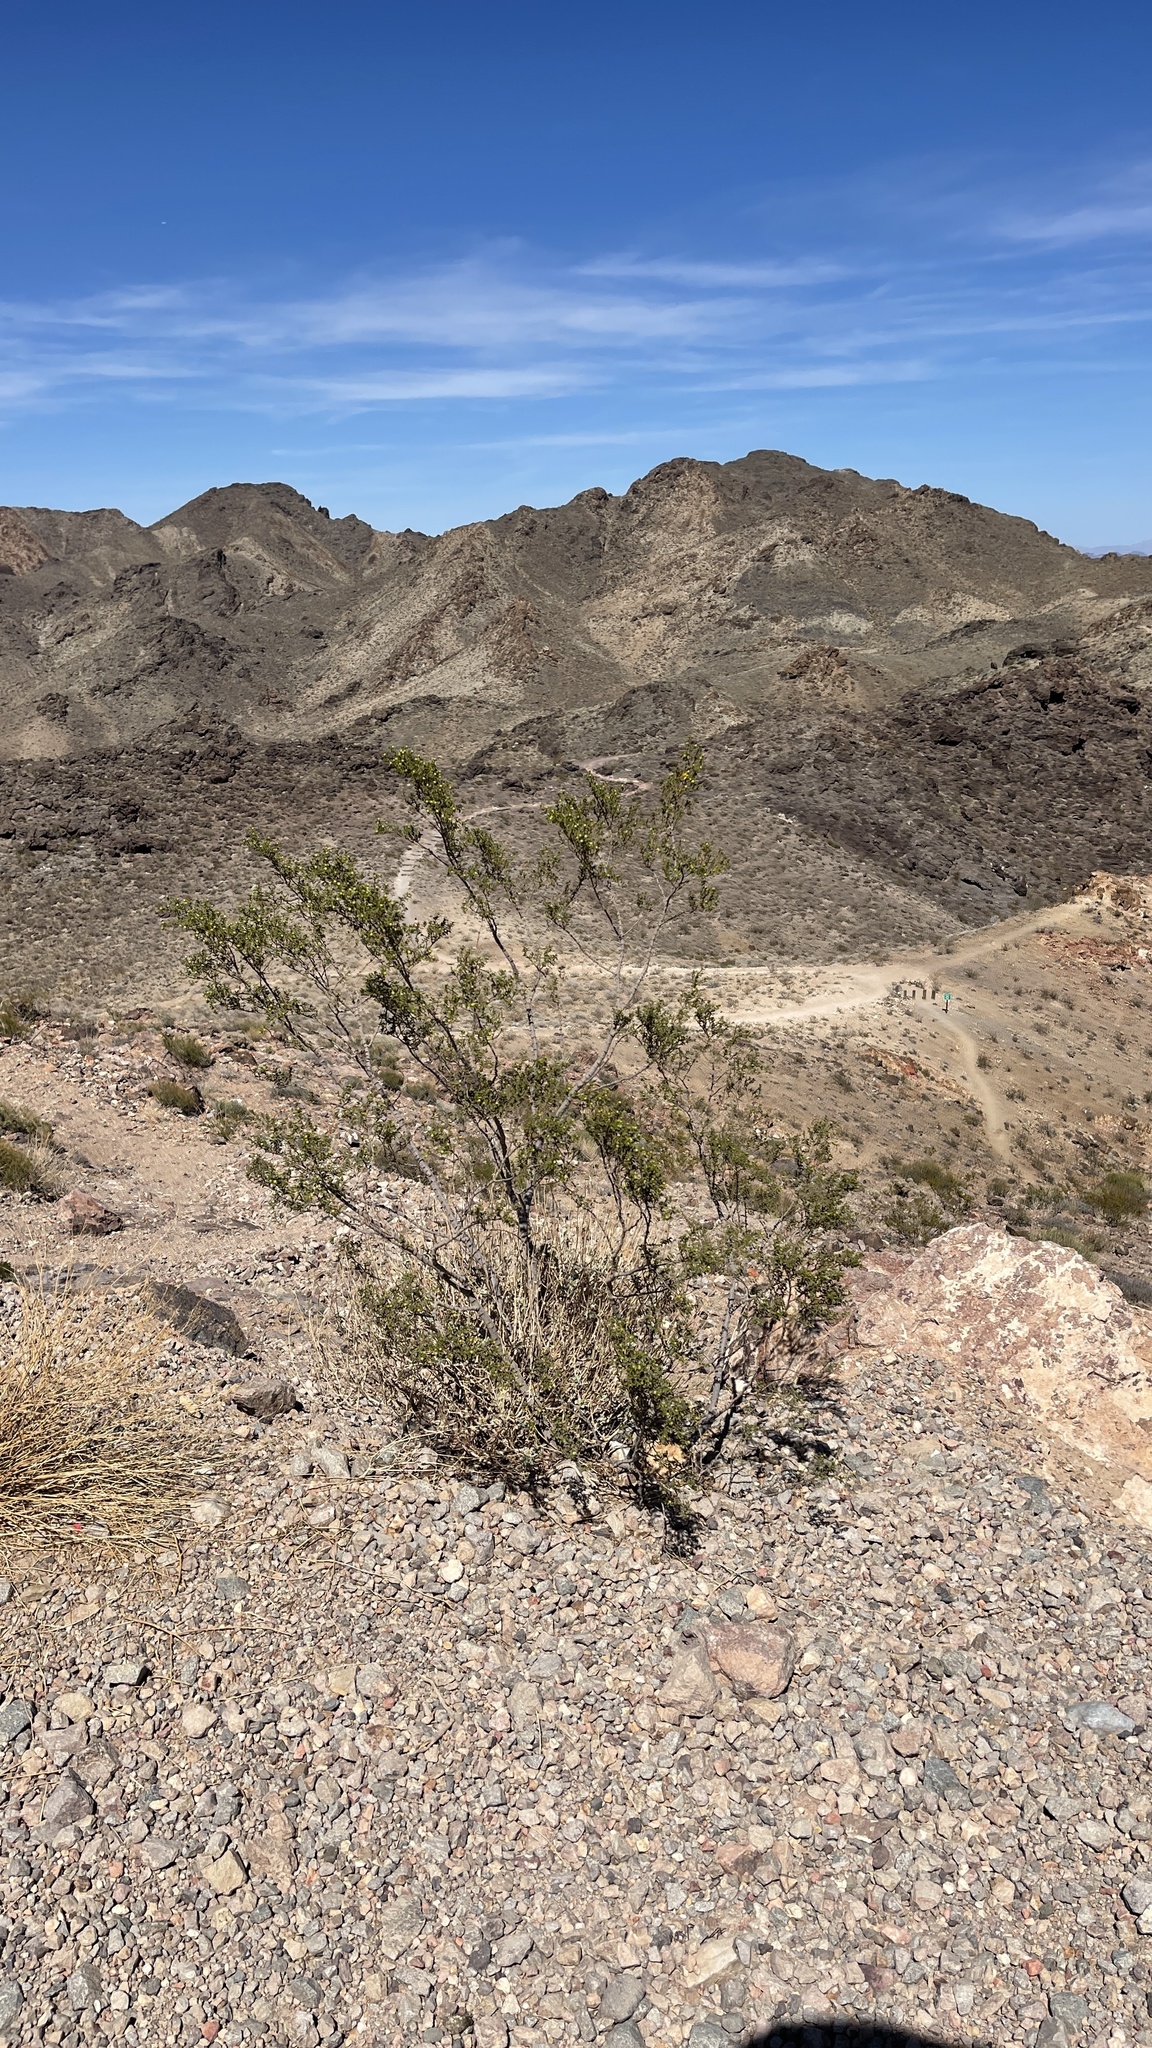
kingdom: Plantae
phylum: Tracheophyta
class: Magnoliopsida
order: Zygophyllales
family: Zygophyllaceae
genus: Larrea
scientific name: Larrea tridentata
